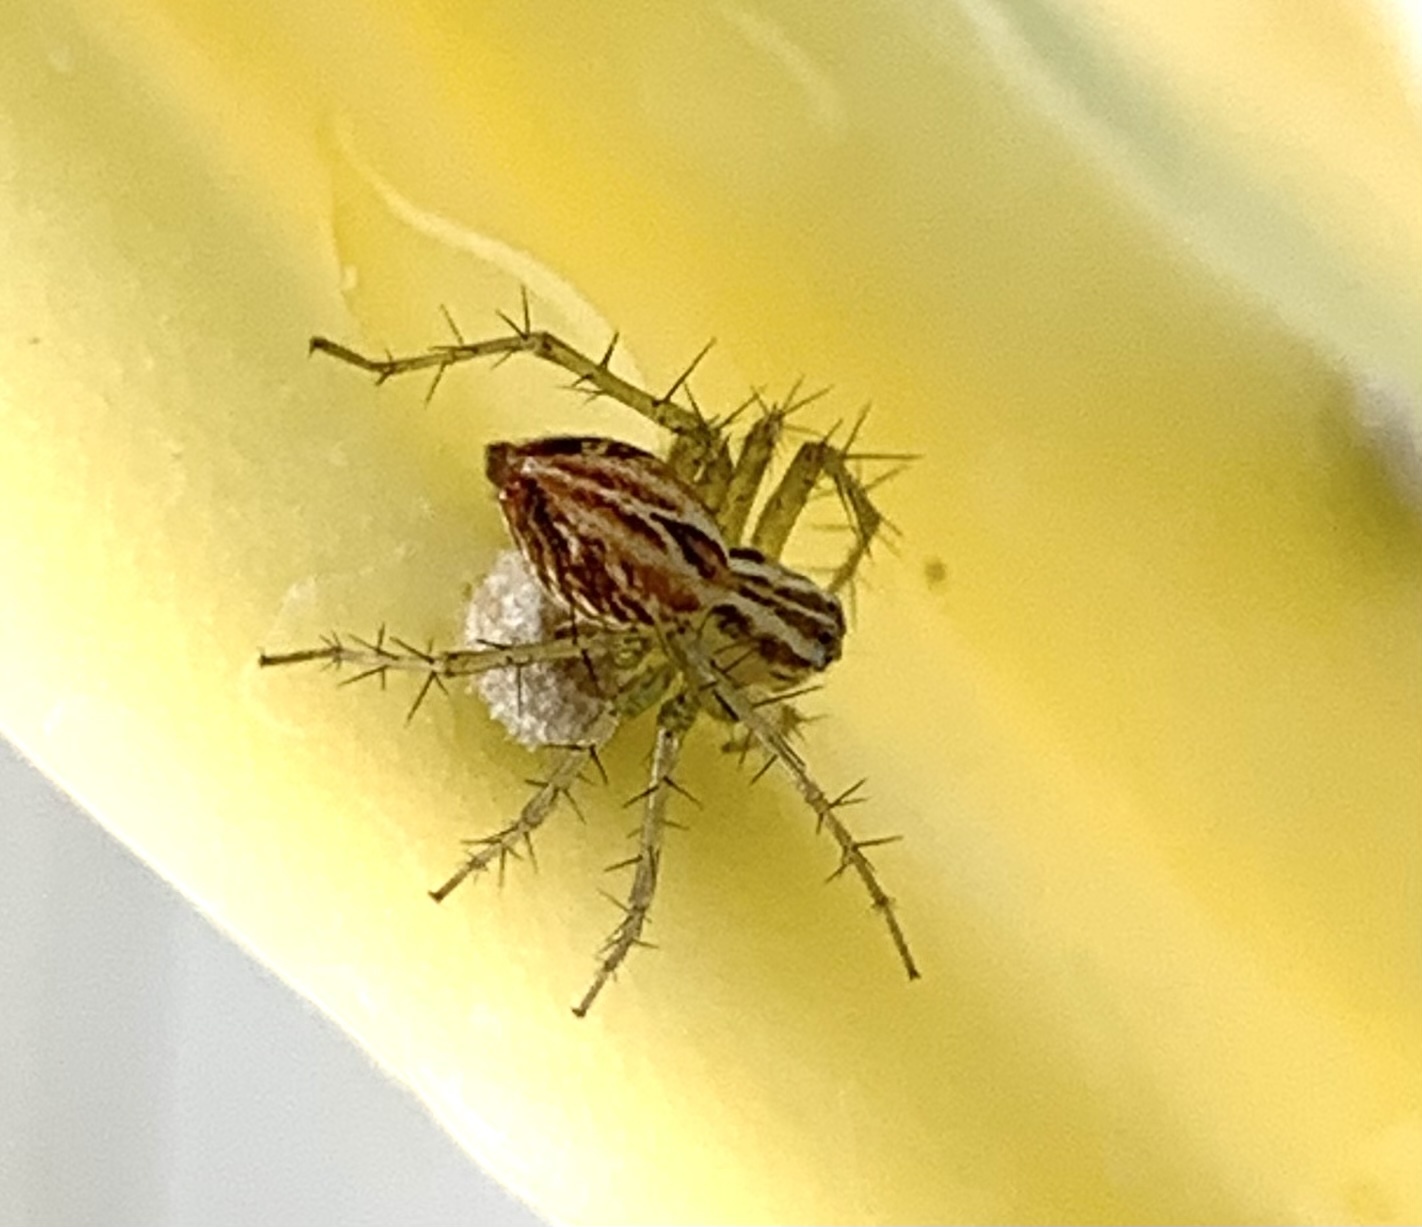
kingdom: Animalia
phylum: Arthropoda
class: Arachnida
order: Araneae
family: Oxyopidae
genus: Oxyopes
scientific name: Oxyopes salticus
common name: Lynx spiders
